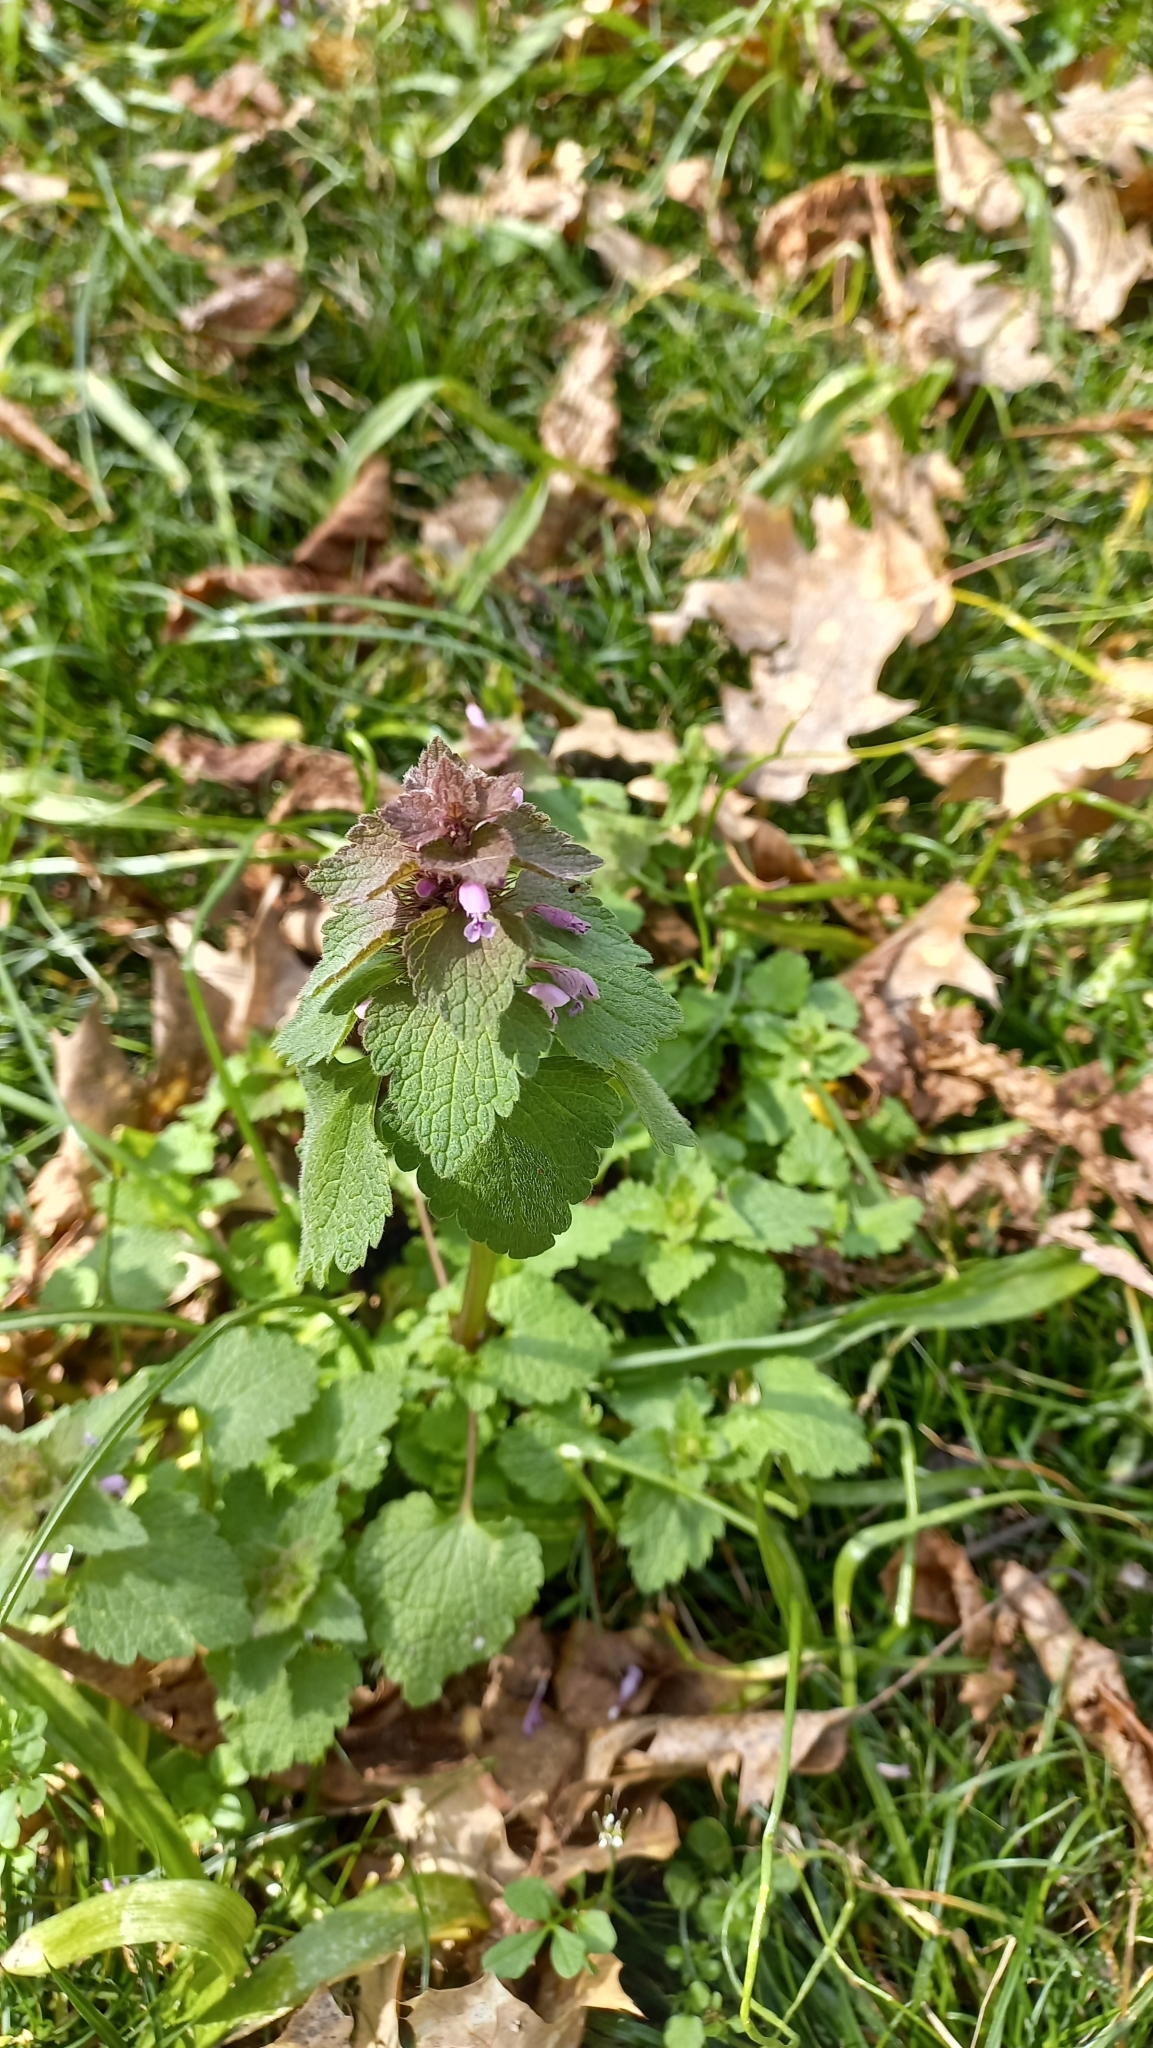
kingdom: Plantae
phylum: Tracheophyta
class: Magnoliopsida
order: Lamiales
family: Lamiaceae
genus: Lamium
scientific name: Lamium purpureum
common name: Red dead-nettle
